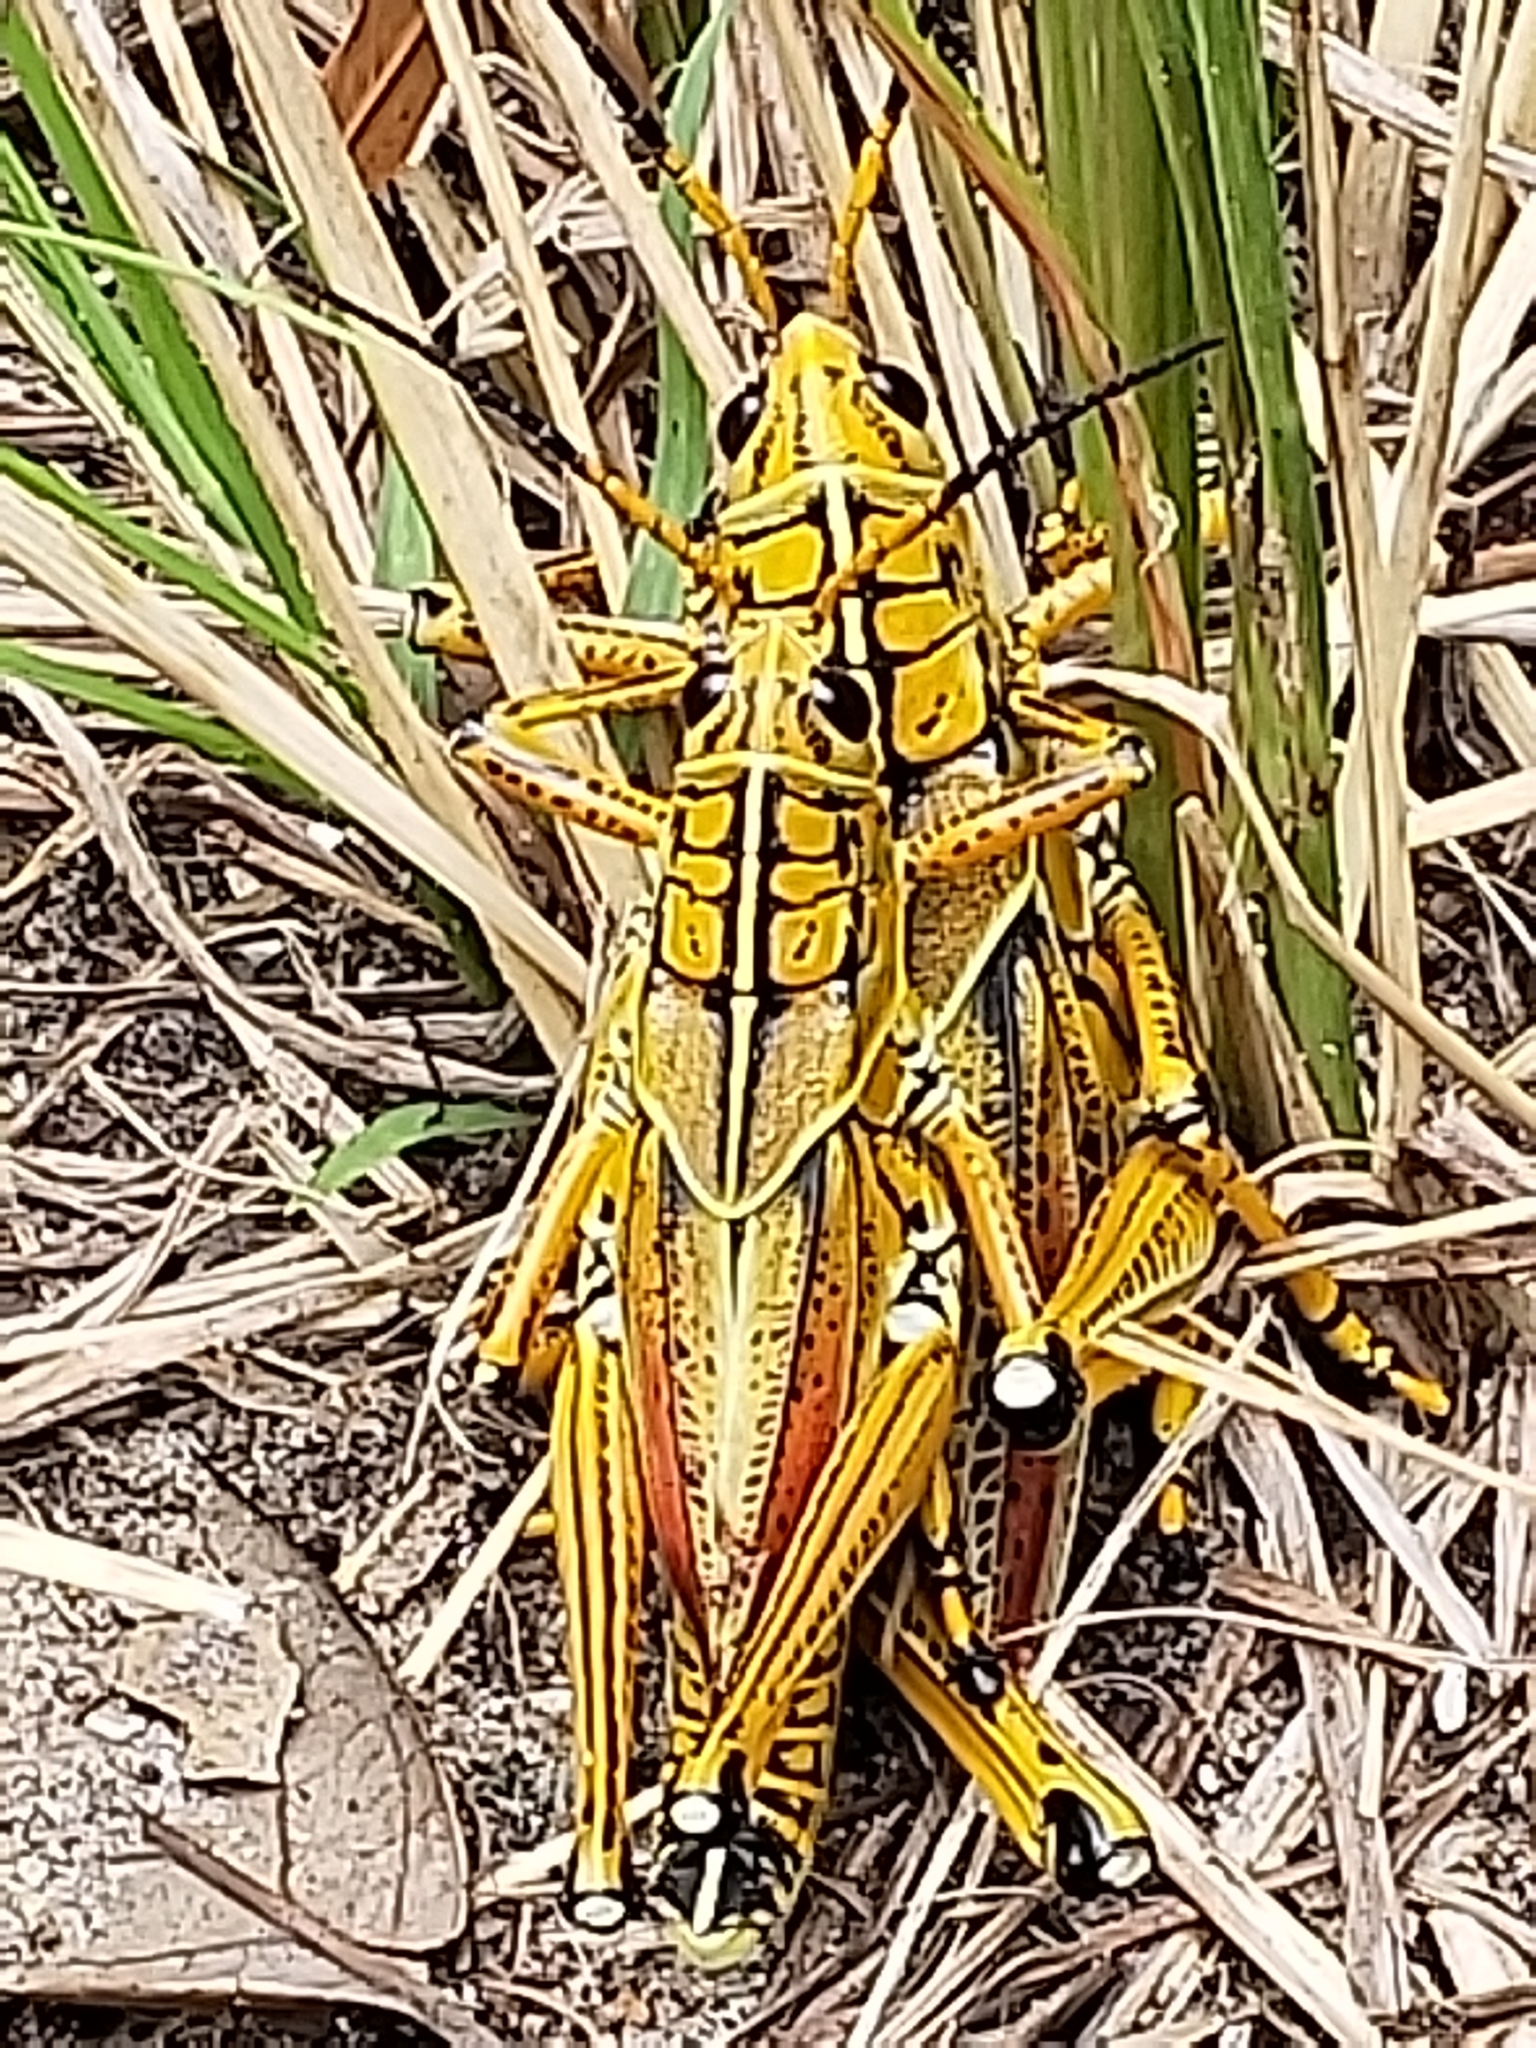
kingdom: Animalia
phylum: Arthropoda
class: Insecta
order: Orthoptera
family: Romaleidae
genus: Romalea
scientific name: Romalea microptera
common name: Eastern lubber grasshopper
